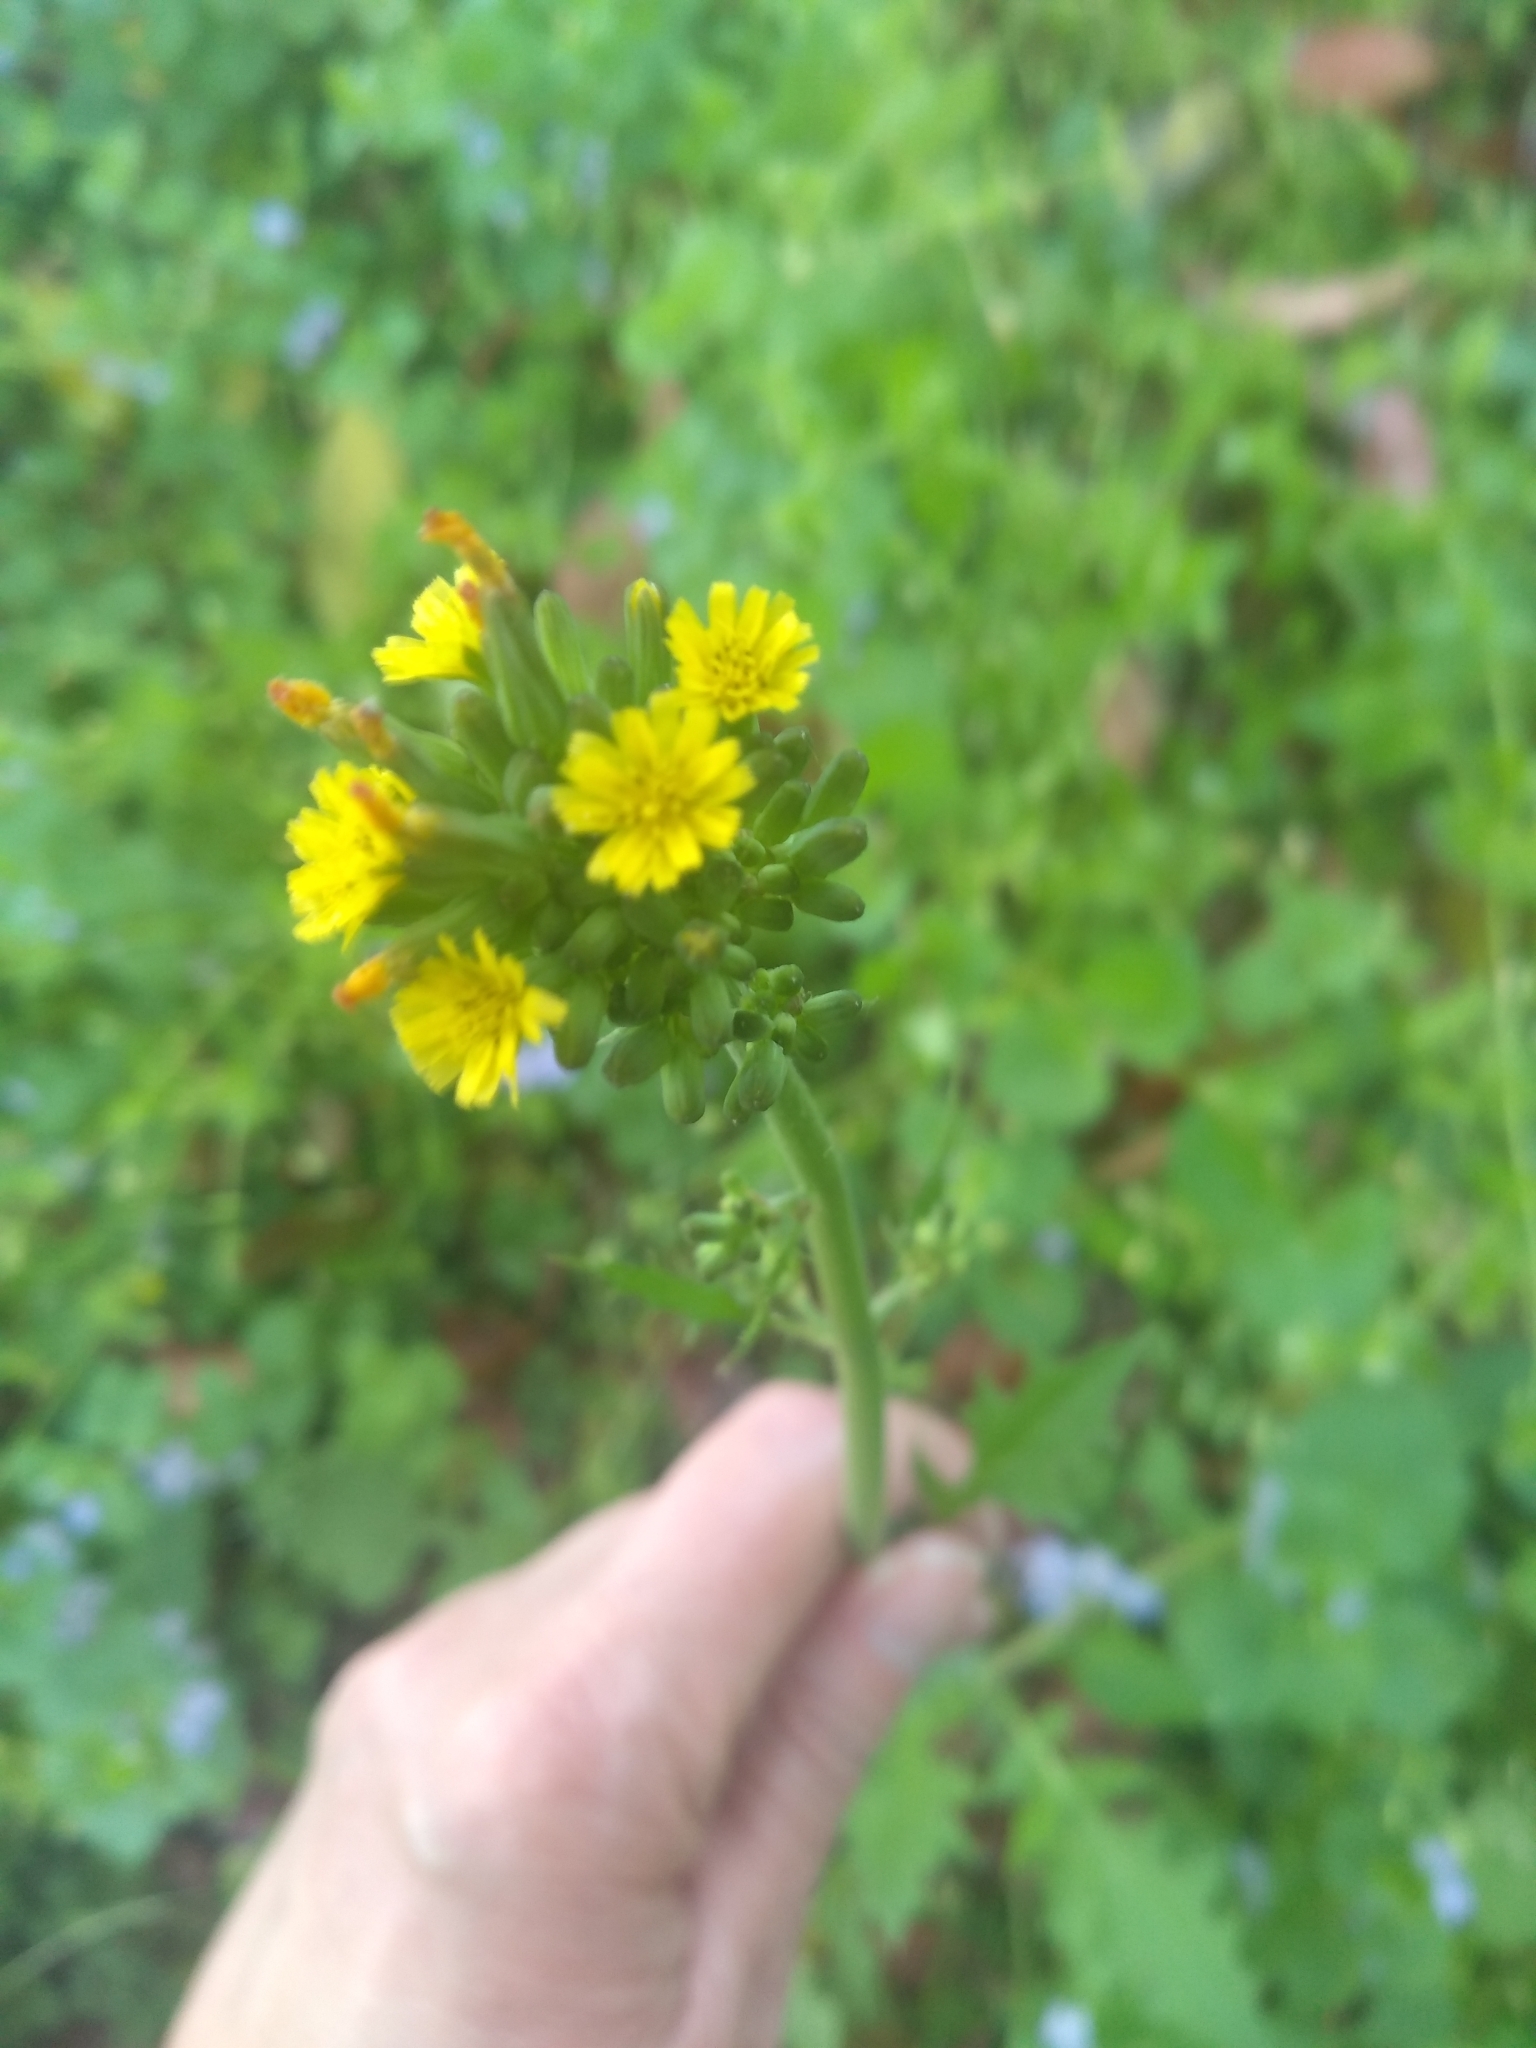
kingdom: Plantae
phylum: Tracheophyta
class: Magnoliopsida
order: Asterales
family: Asteraceae
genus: Youngia
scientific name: Youngia japonica
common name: Oriental false hawksbeard
